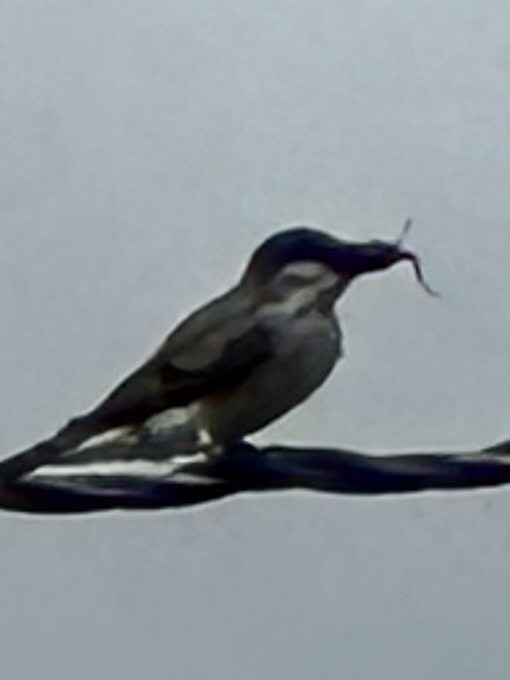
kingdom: Animalia
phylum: Chordata
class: Aves
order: Passeriformes
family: Tyrannidae
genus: Tyrannus
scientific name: Tyrannus dominicensis
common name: Gray kingbird
